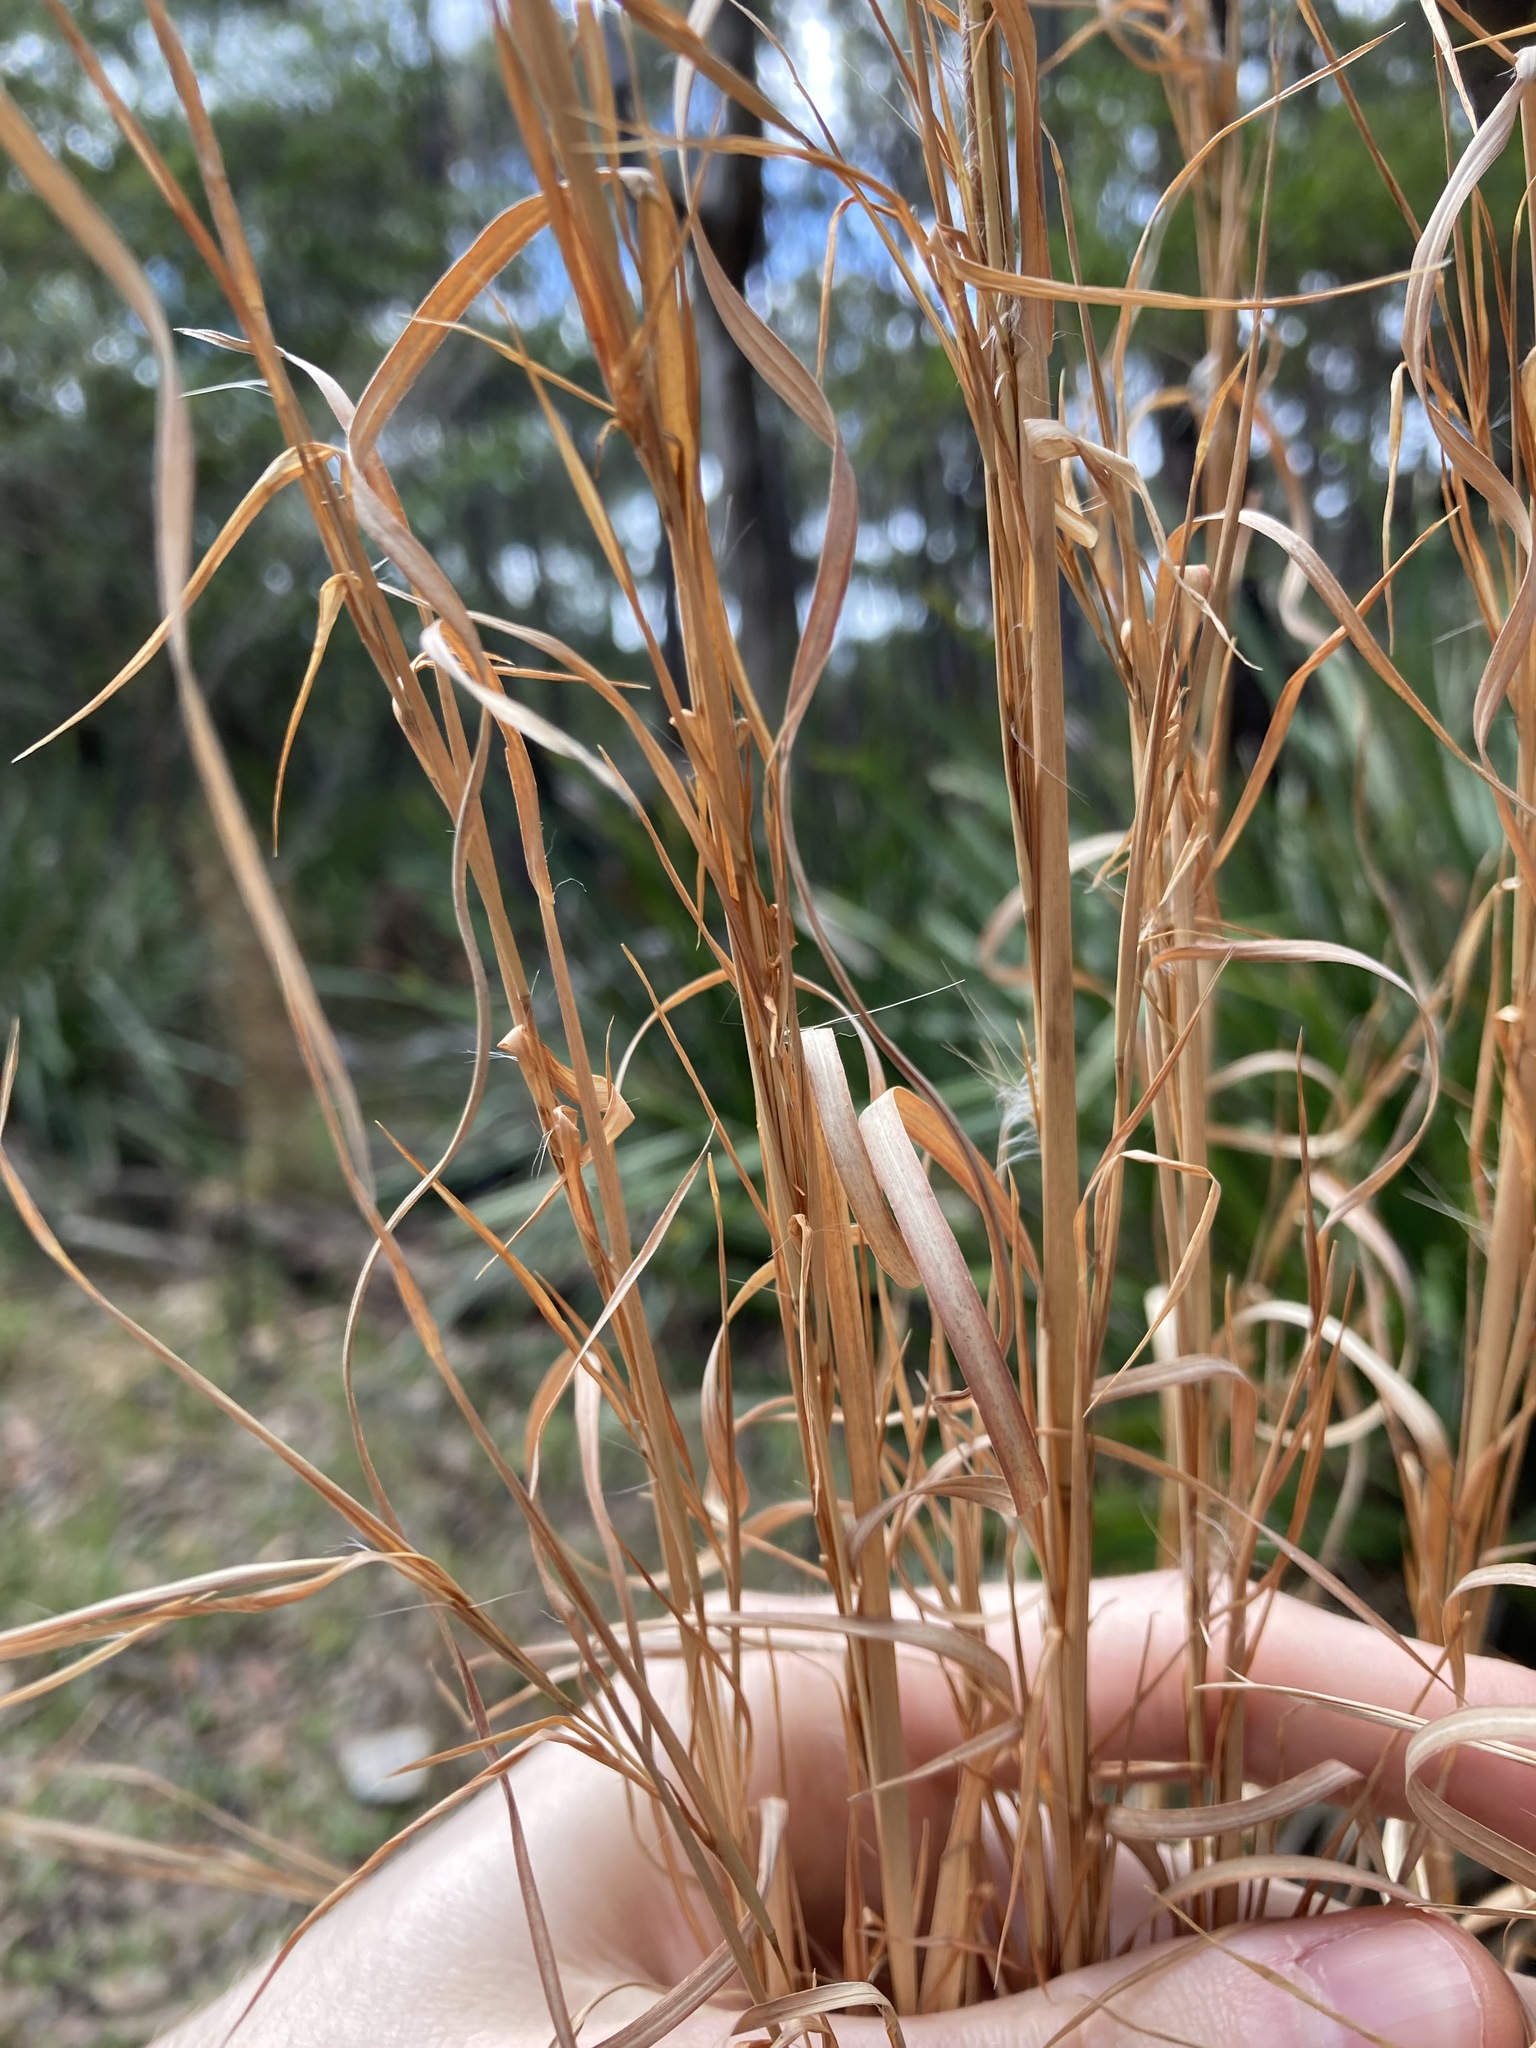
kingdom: Plantae
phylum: Tracheophyta
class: Liliopsida
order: Poales
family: Poaceae
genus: Andropogon
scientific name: Andropogon virginicus
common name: Broomsedge bluestem
